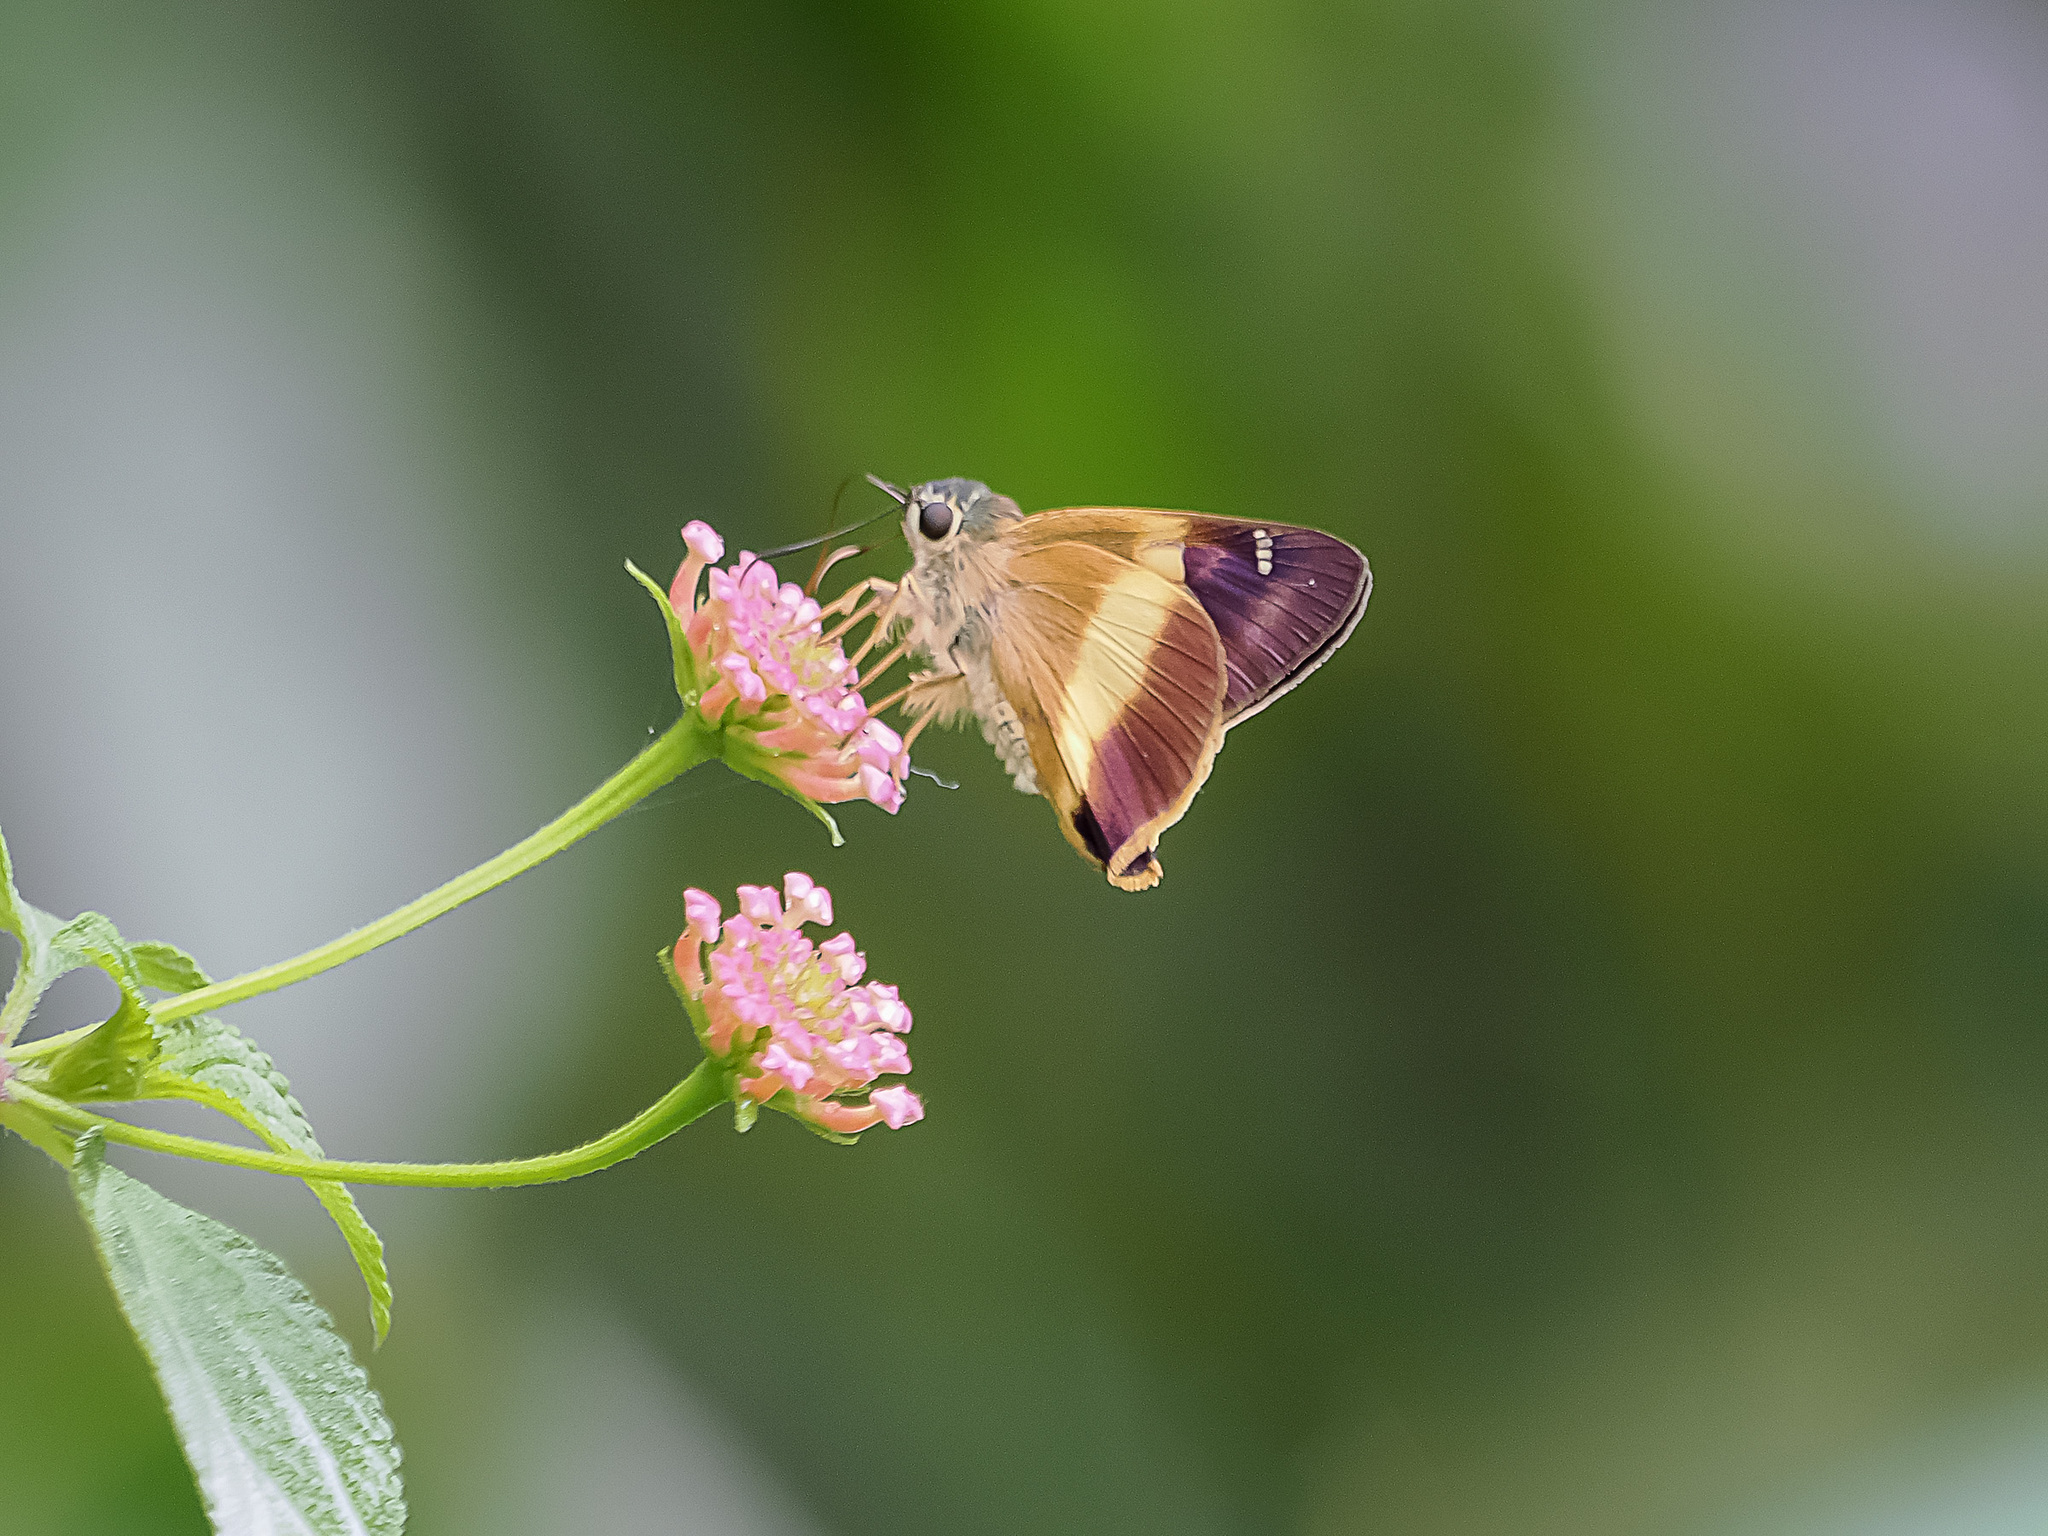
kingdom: Animalia
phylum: Arthropoda
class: Insecta
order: Lepidoptera
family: Hesperiidae
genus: Hasora
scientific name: Hasora schoenherr
